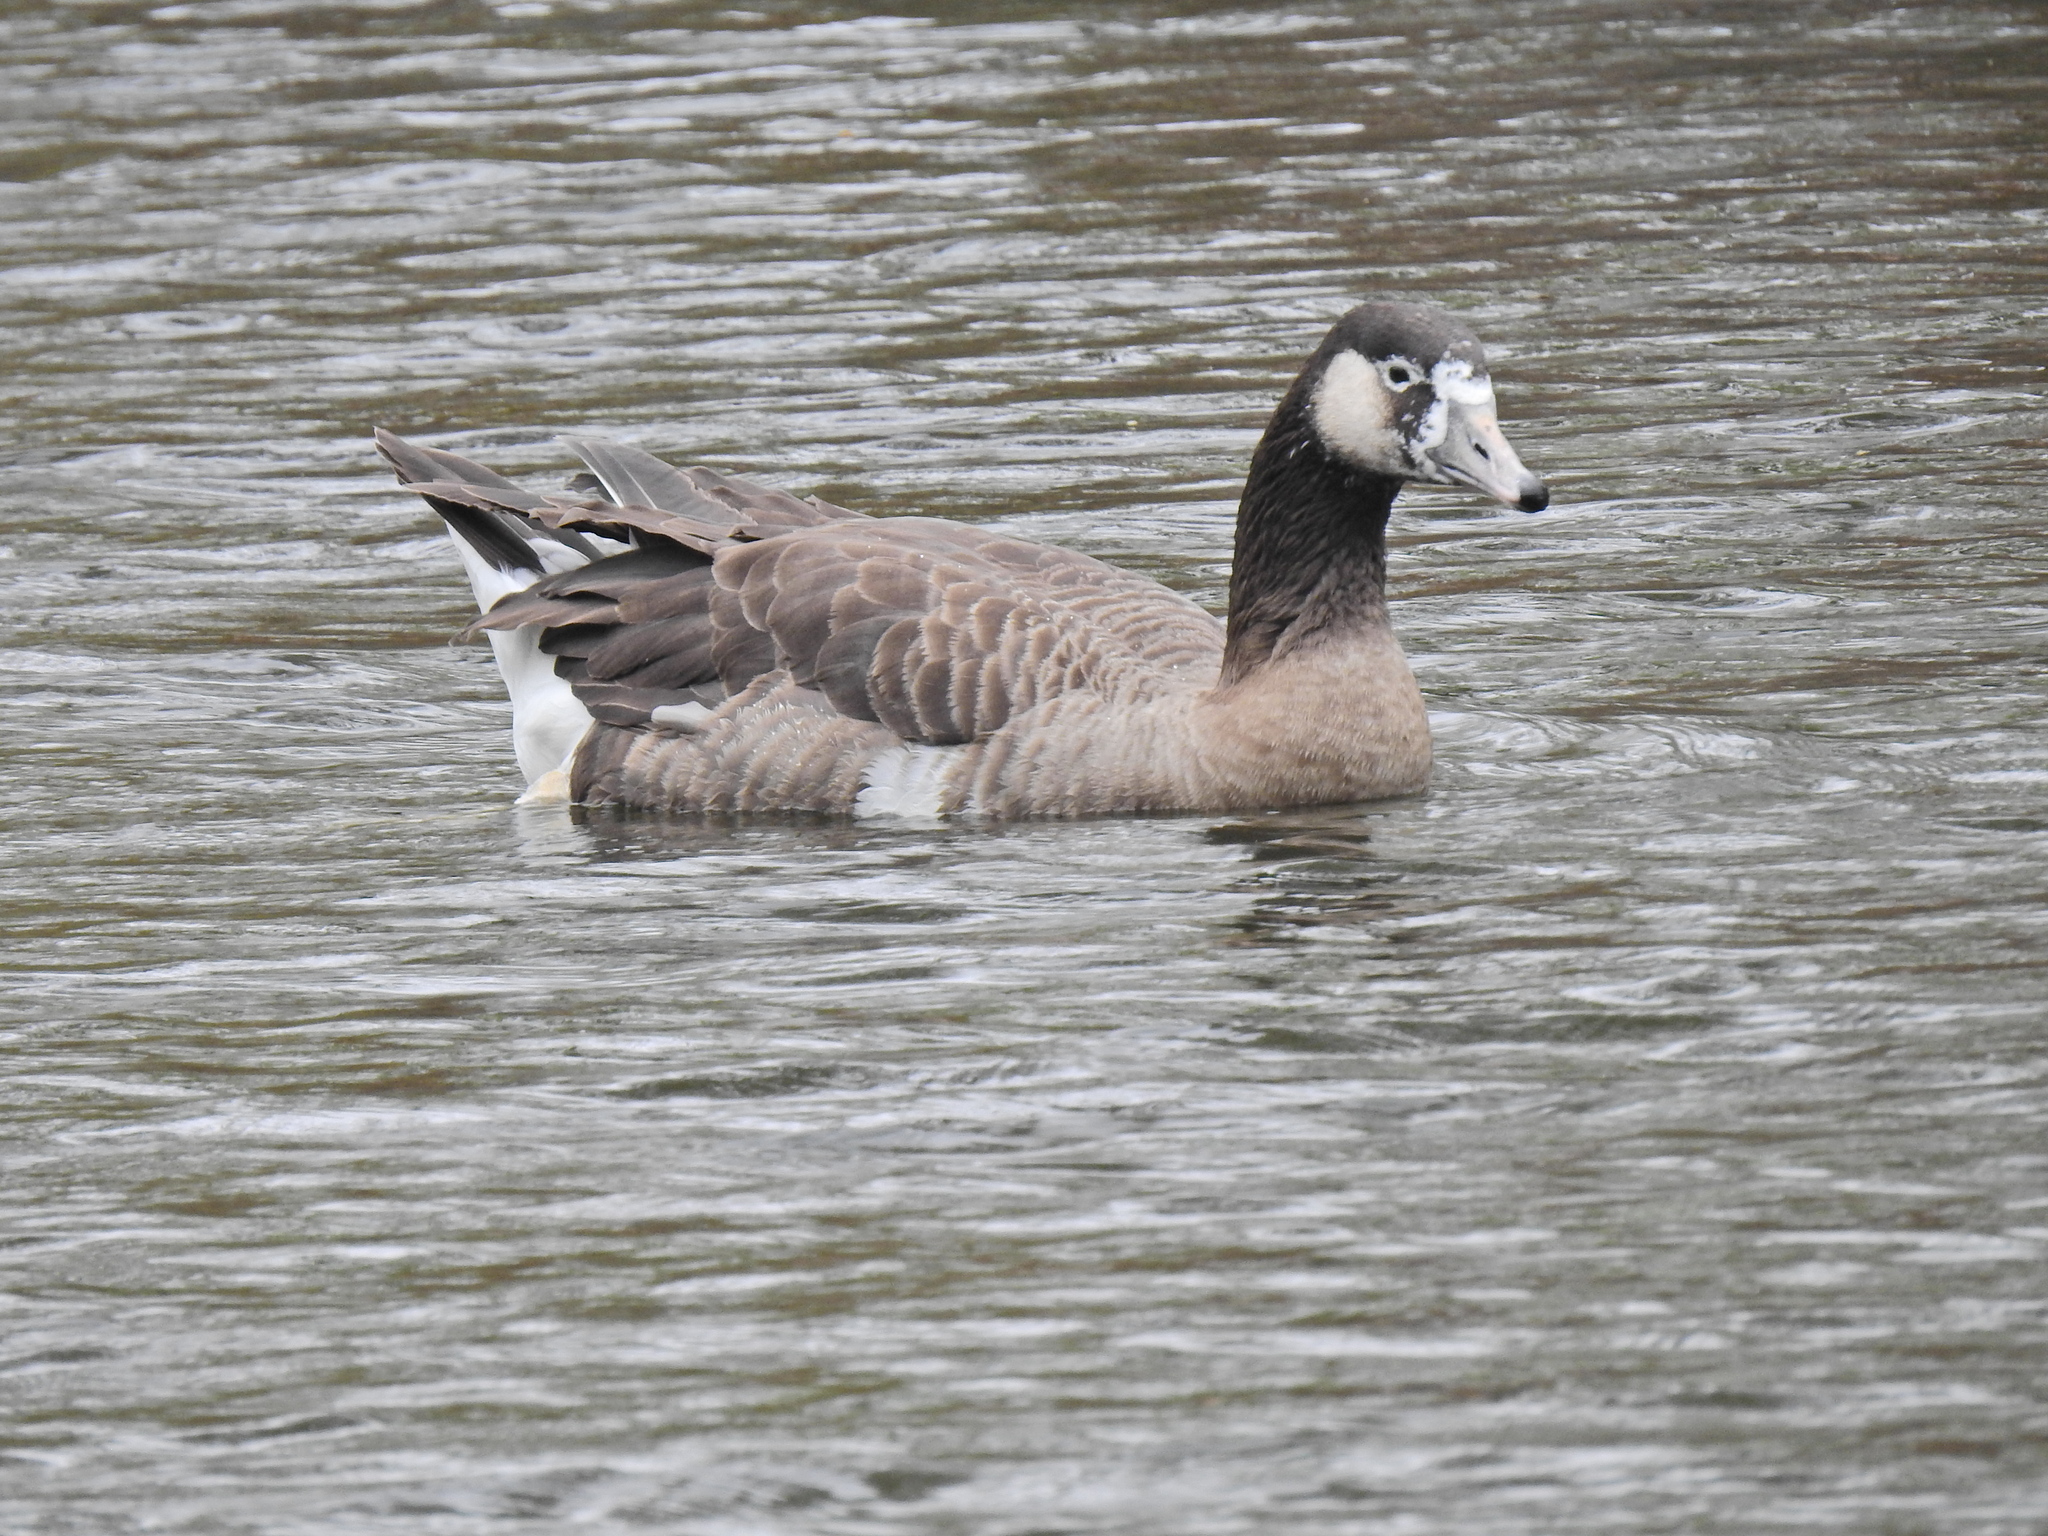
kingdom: Animalia
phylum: Chordata
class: Aves
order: Anseriformes
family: Anatidae
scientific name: Anatidae
